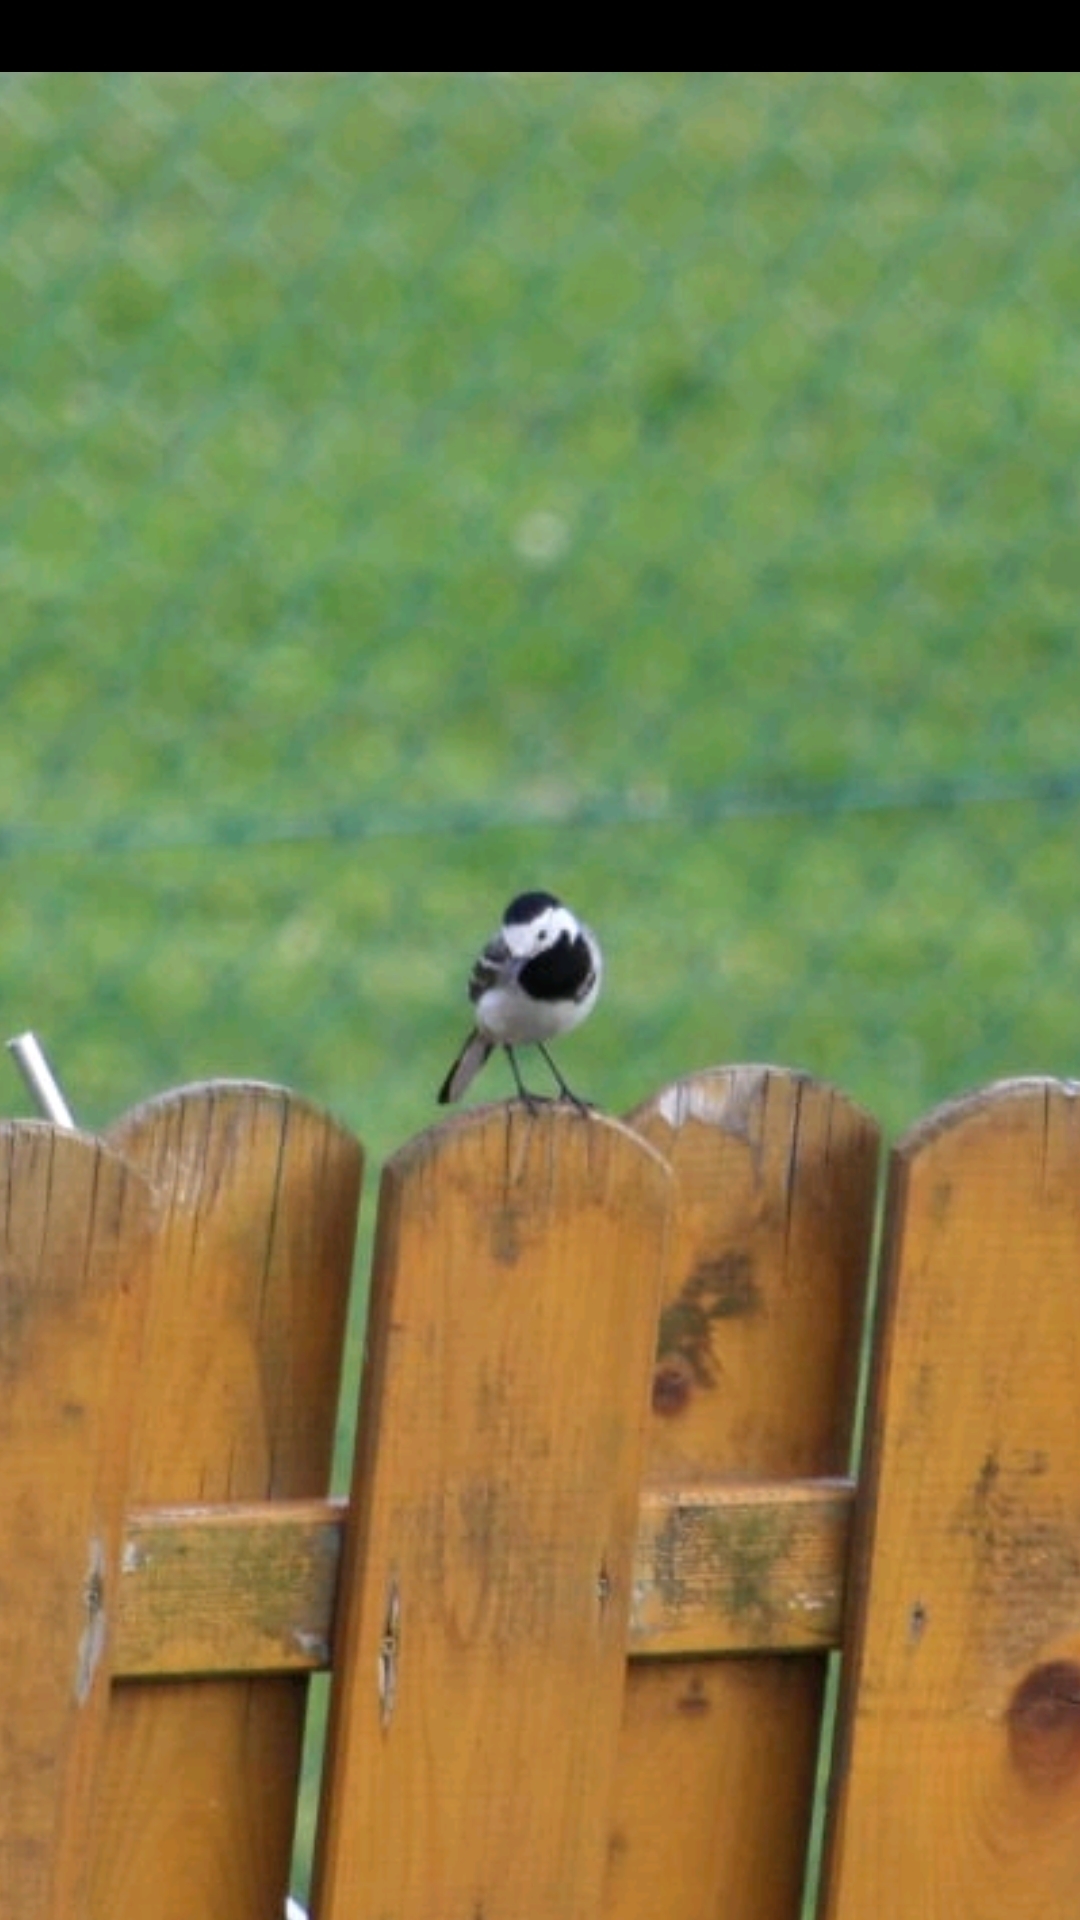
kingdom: Animalia
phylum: Chordata
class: Aves
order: Passeriformes
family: Motacillidae
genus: Motacilla
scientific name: Motacilla alba
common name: White wagtail
